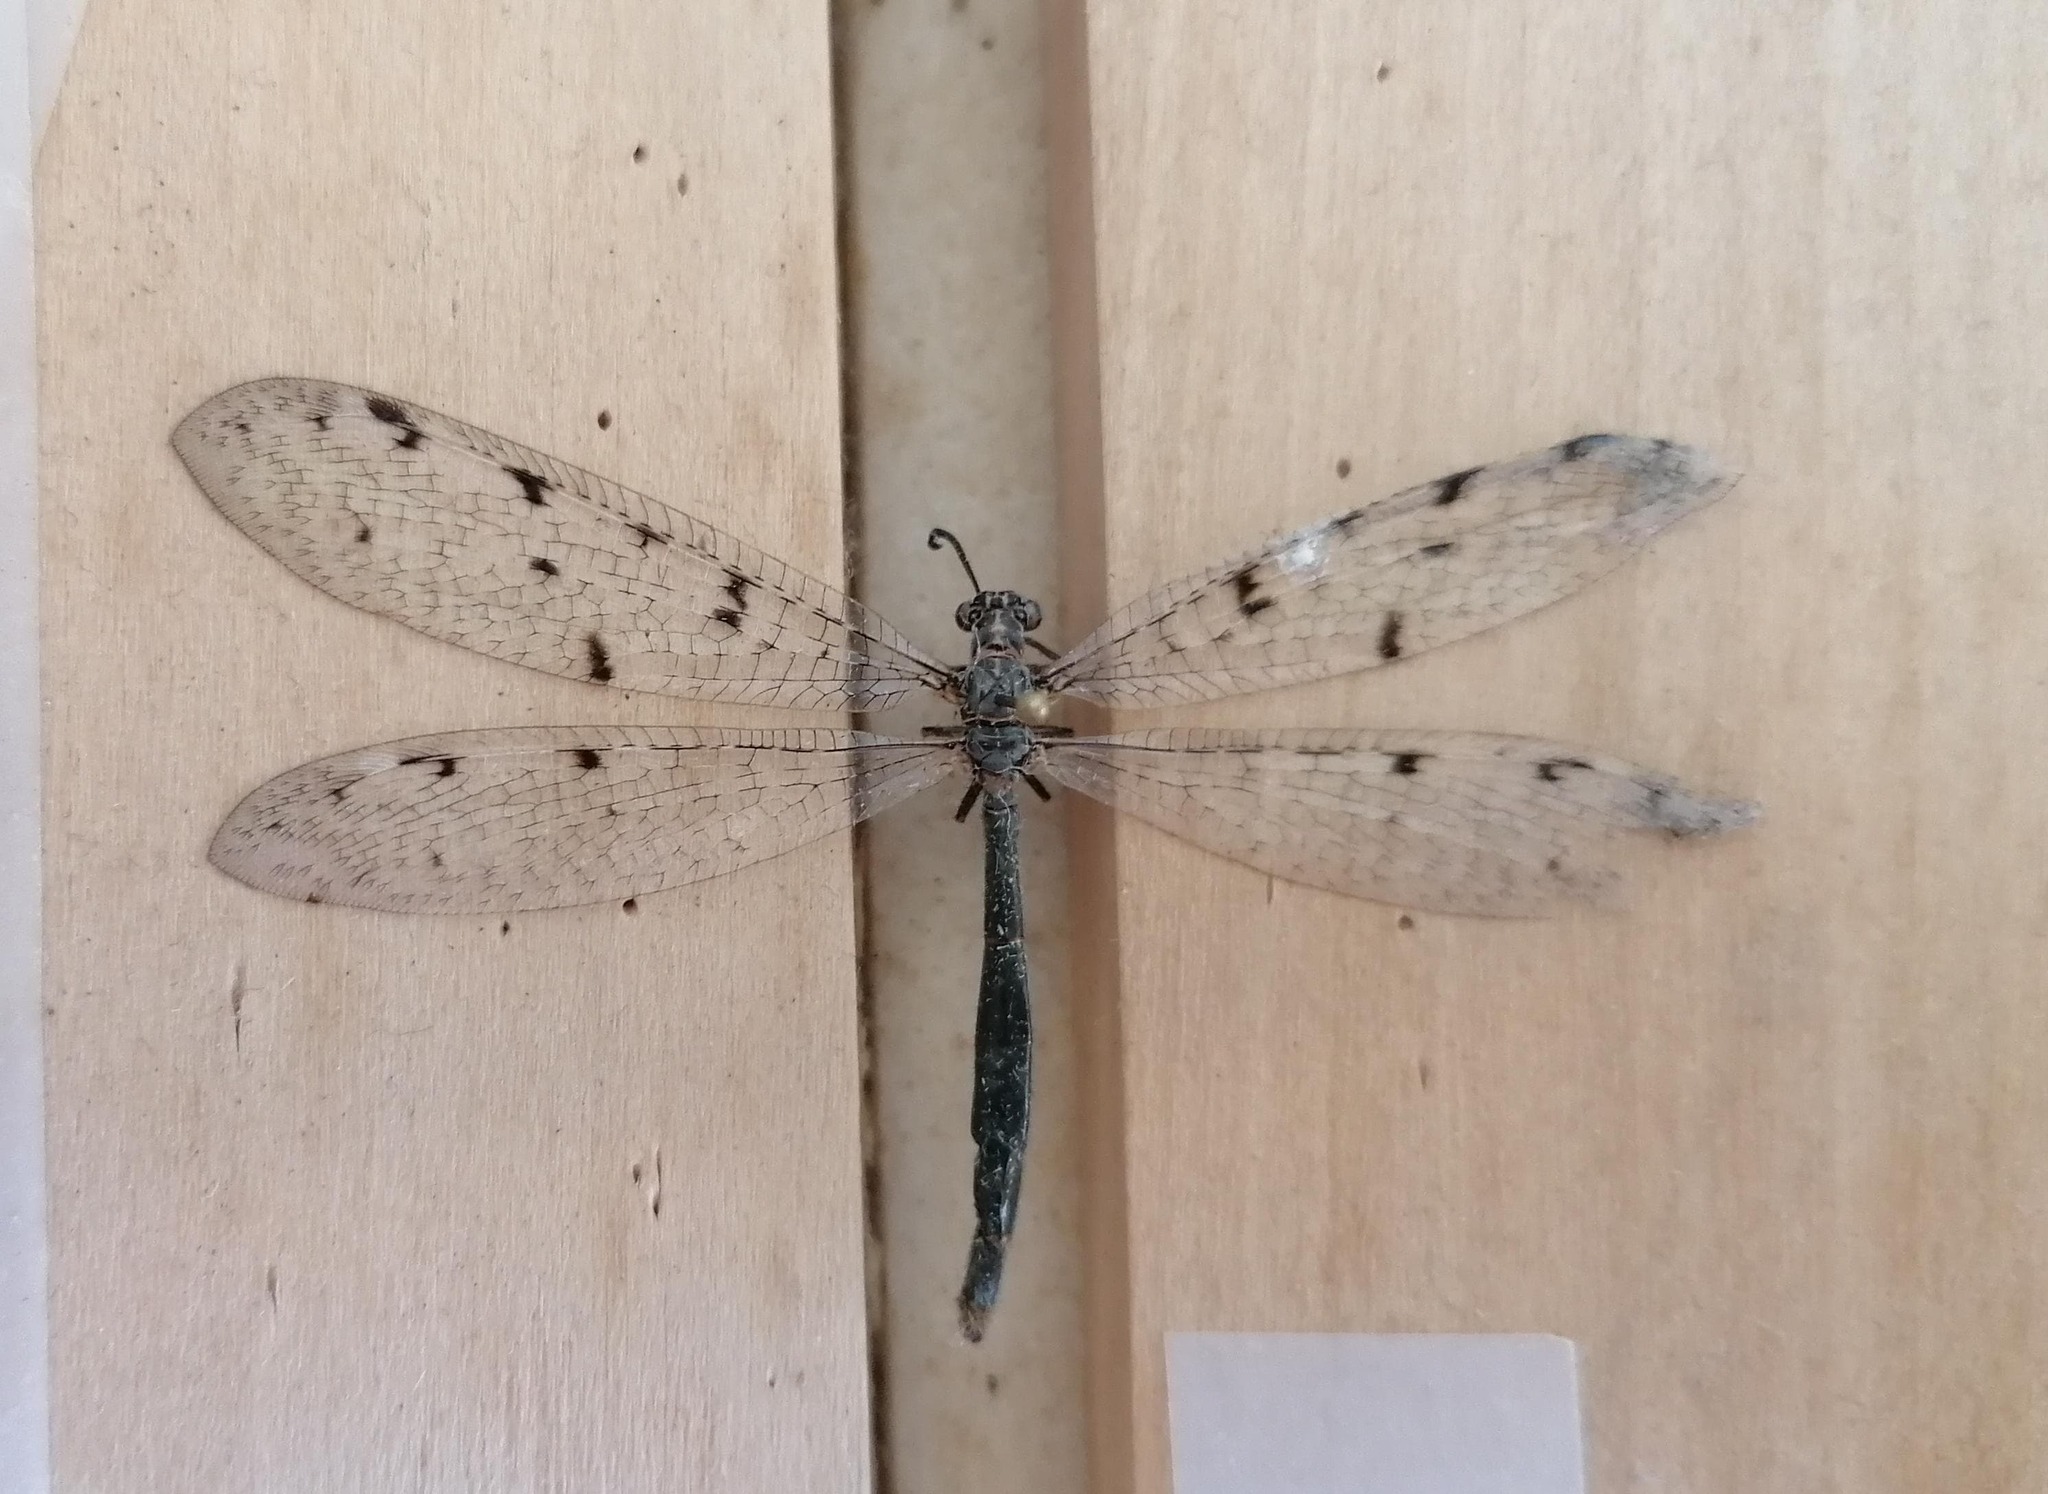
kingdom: Animalia
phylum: Arthropoda
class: Insecta
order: Neuroptera
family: Myrmeleontidae
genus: Euroleon
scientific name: Euroleon nostras
